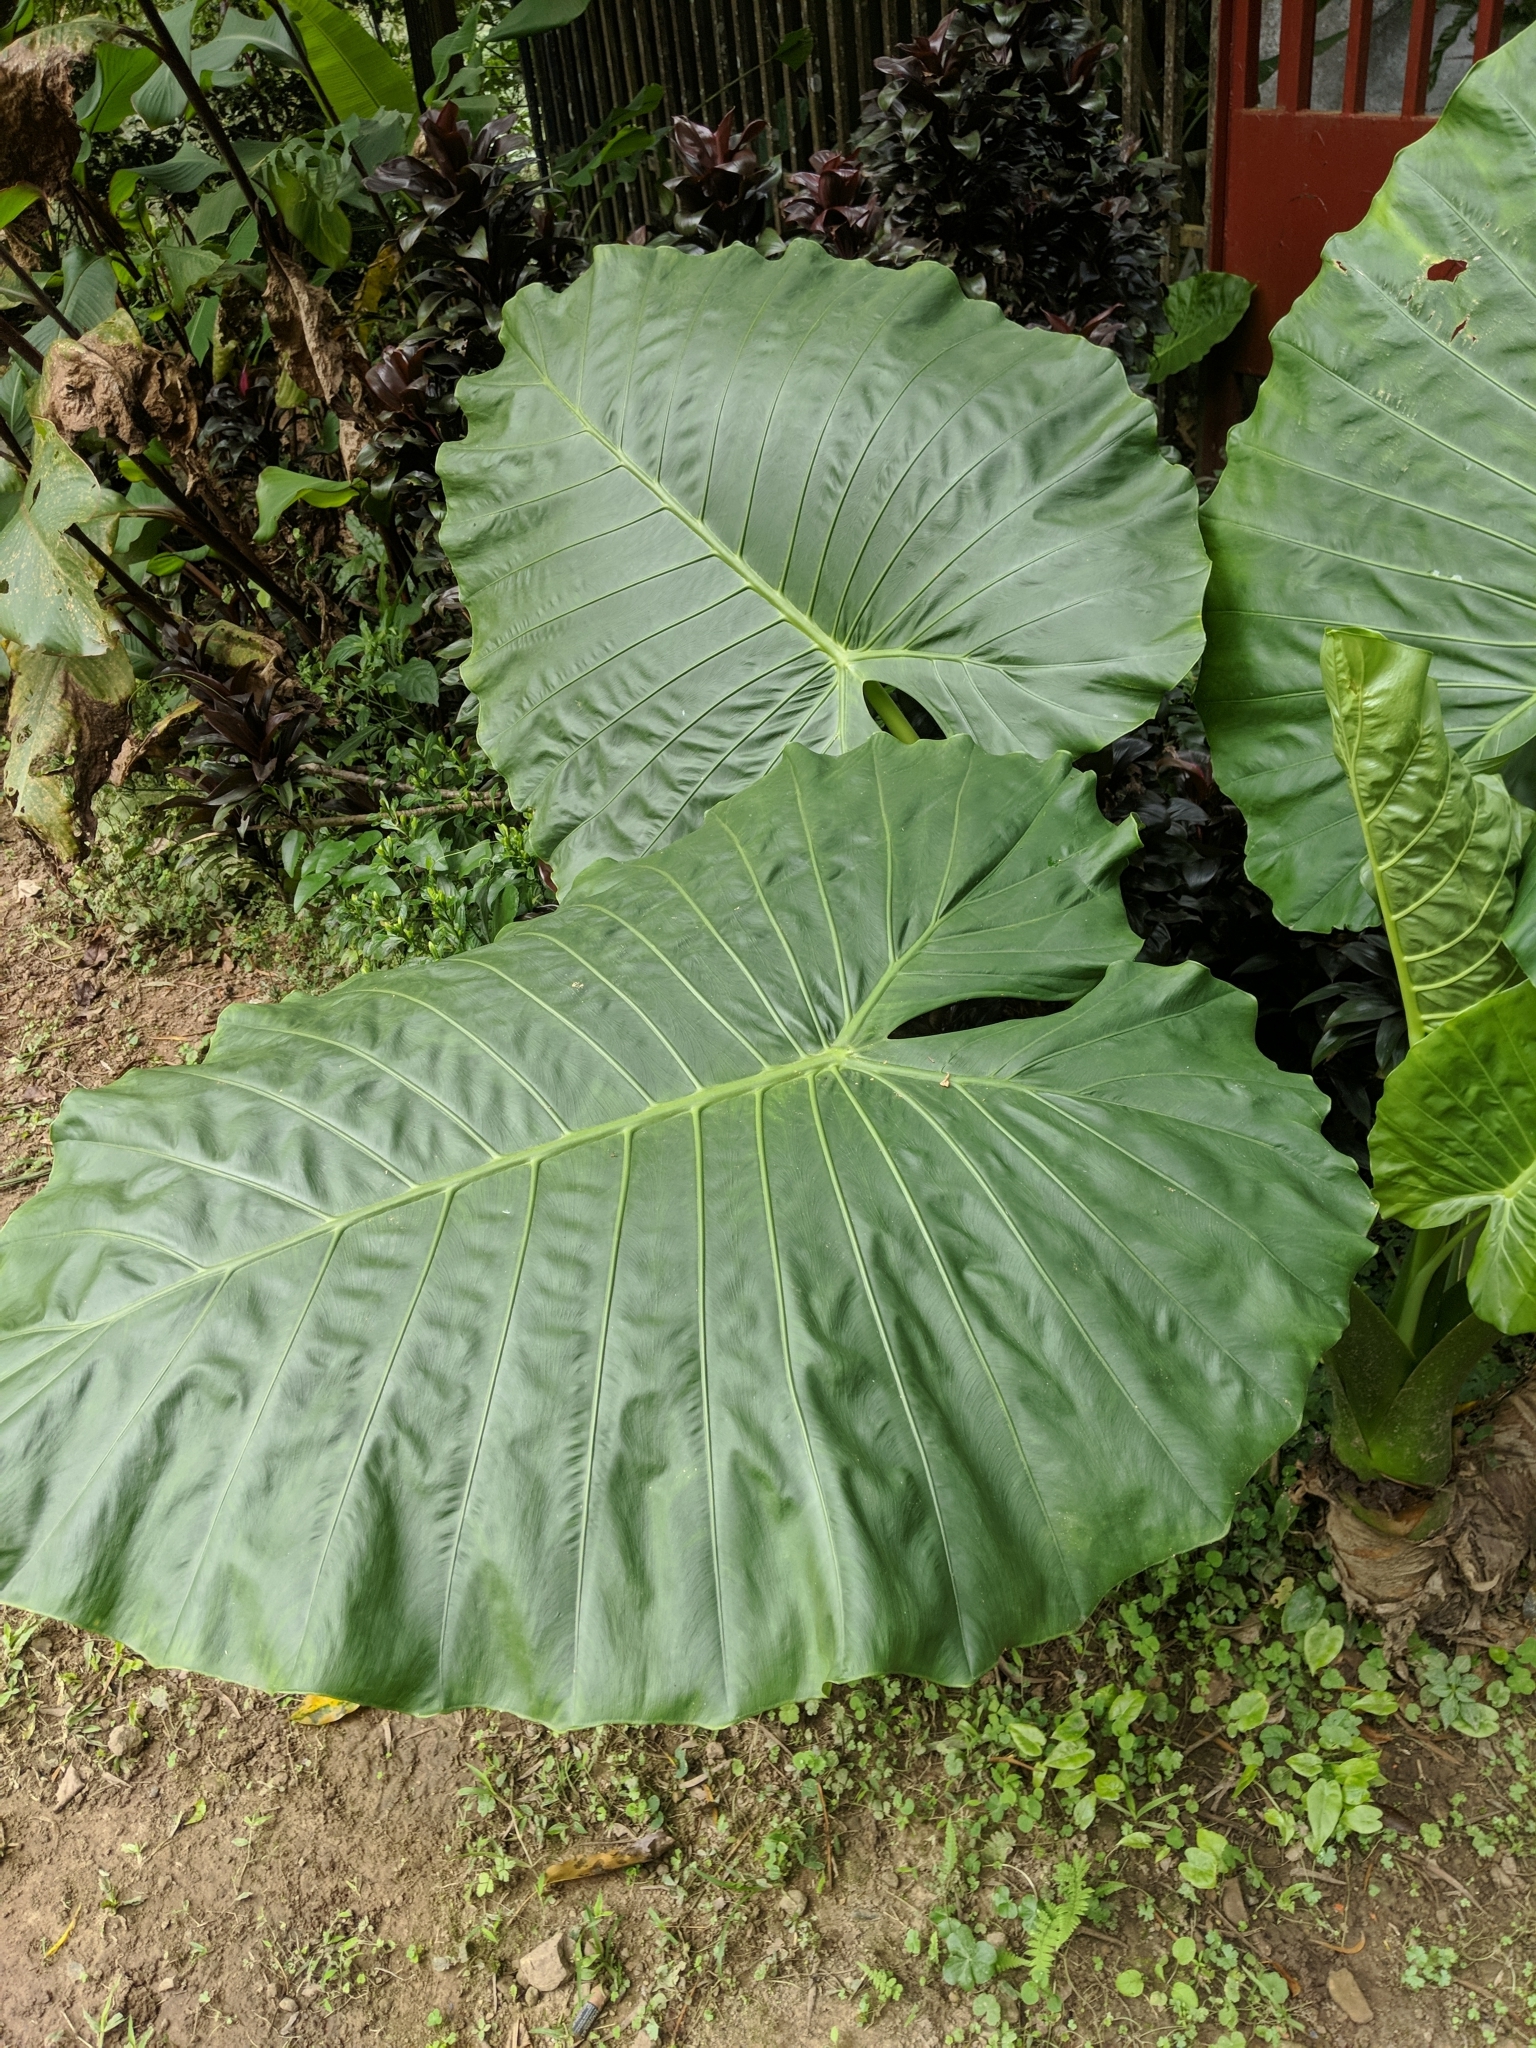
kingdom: Plantae
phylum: Tracheophyta
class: Liliopsida
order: Alismatales
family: Araceae
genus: Alocasia
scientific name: Alocasia odora
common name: Asian taro
